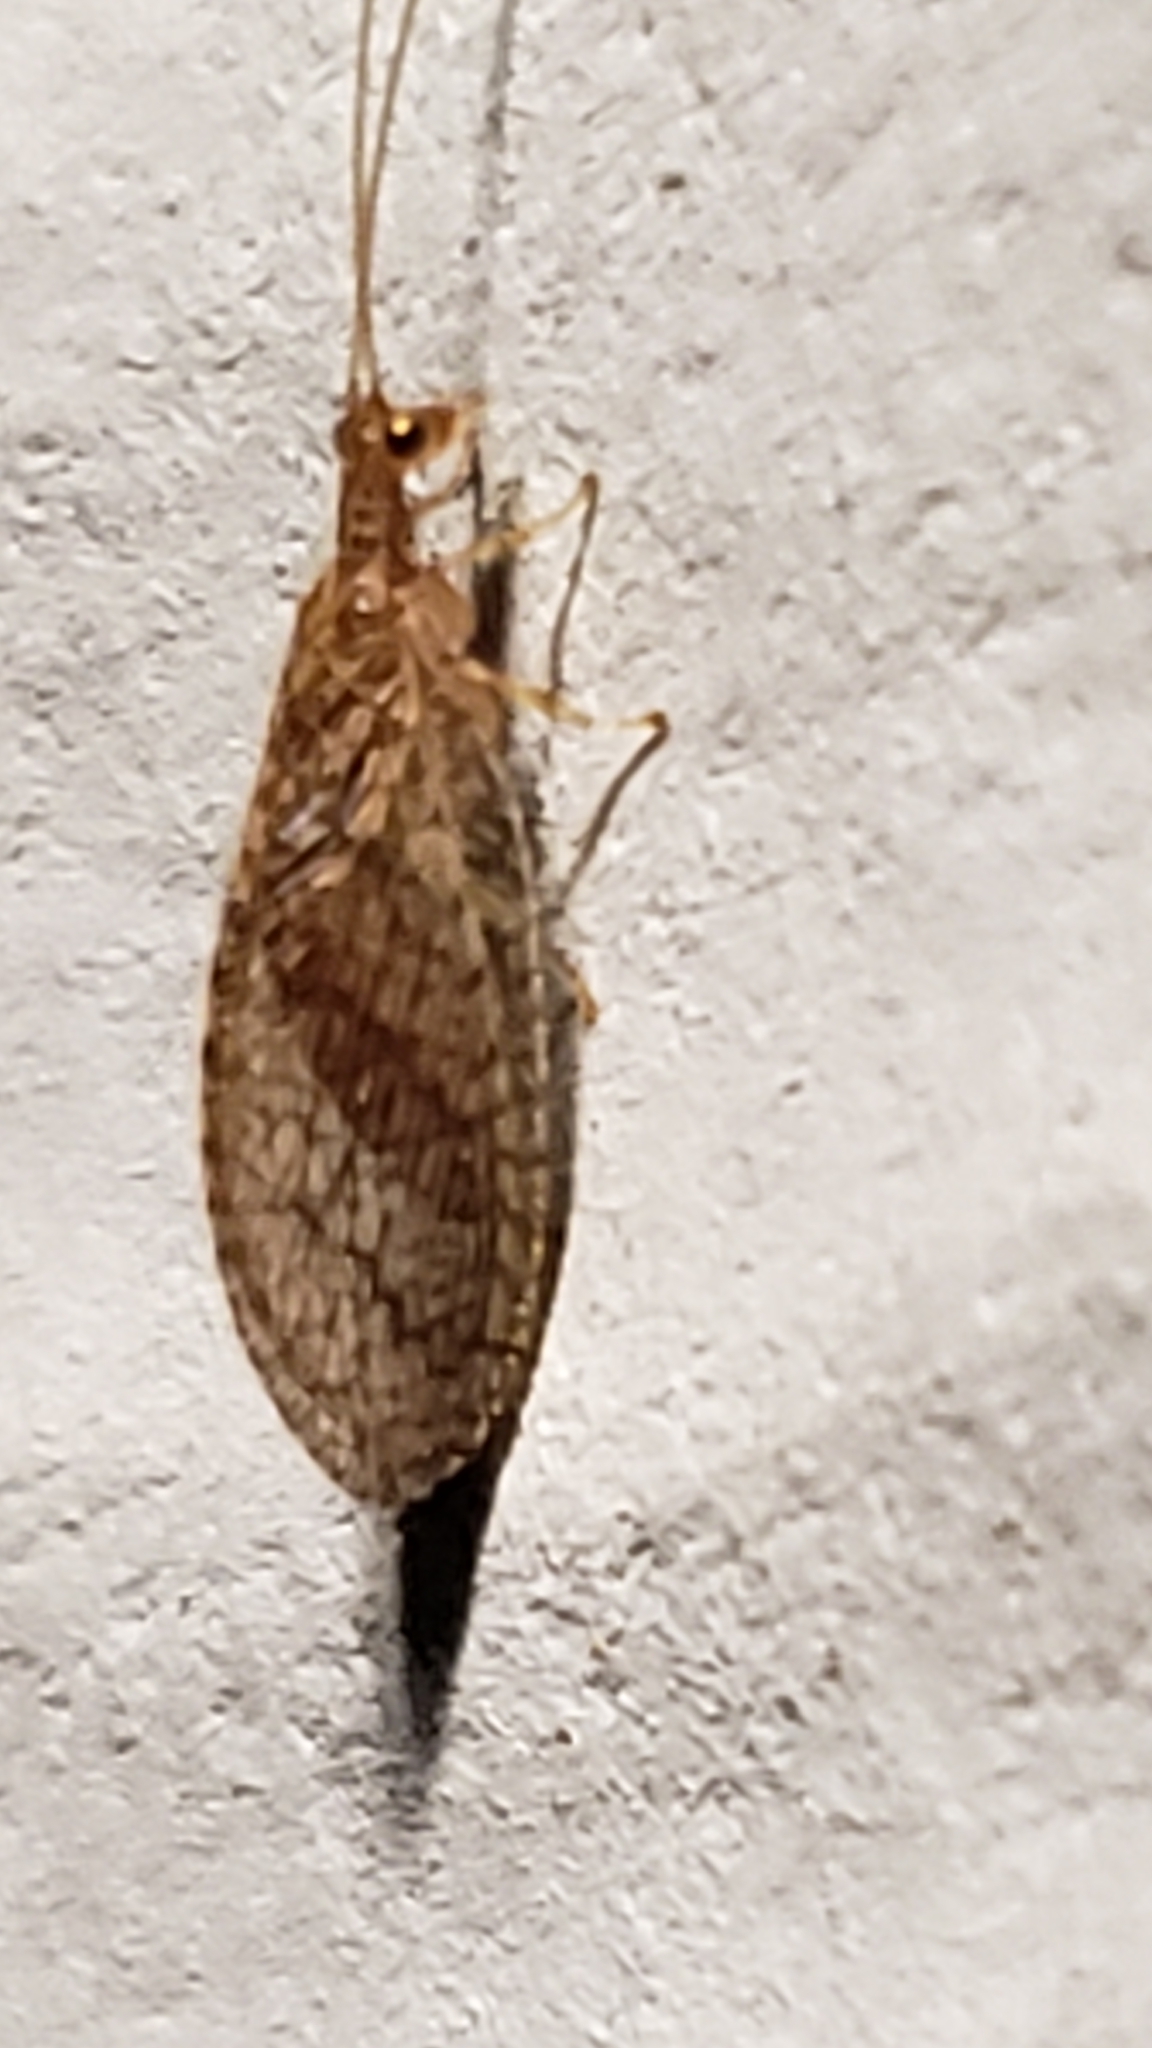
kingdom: Animalia
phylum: Arthropoda
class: Insecta
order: Neuroptera
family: Hemerobiidae
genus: Micromus
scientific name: Micromus posticus
